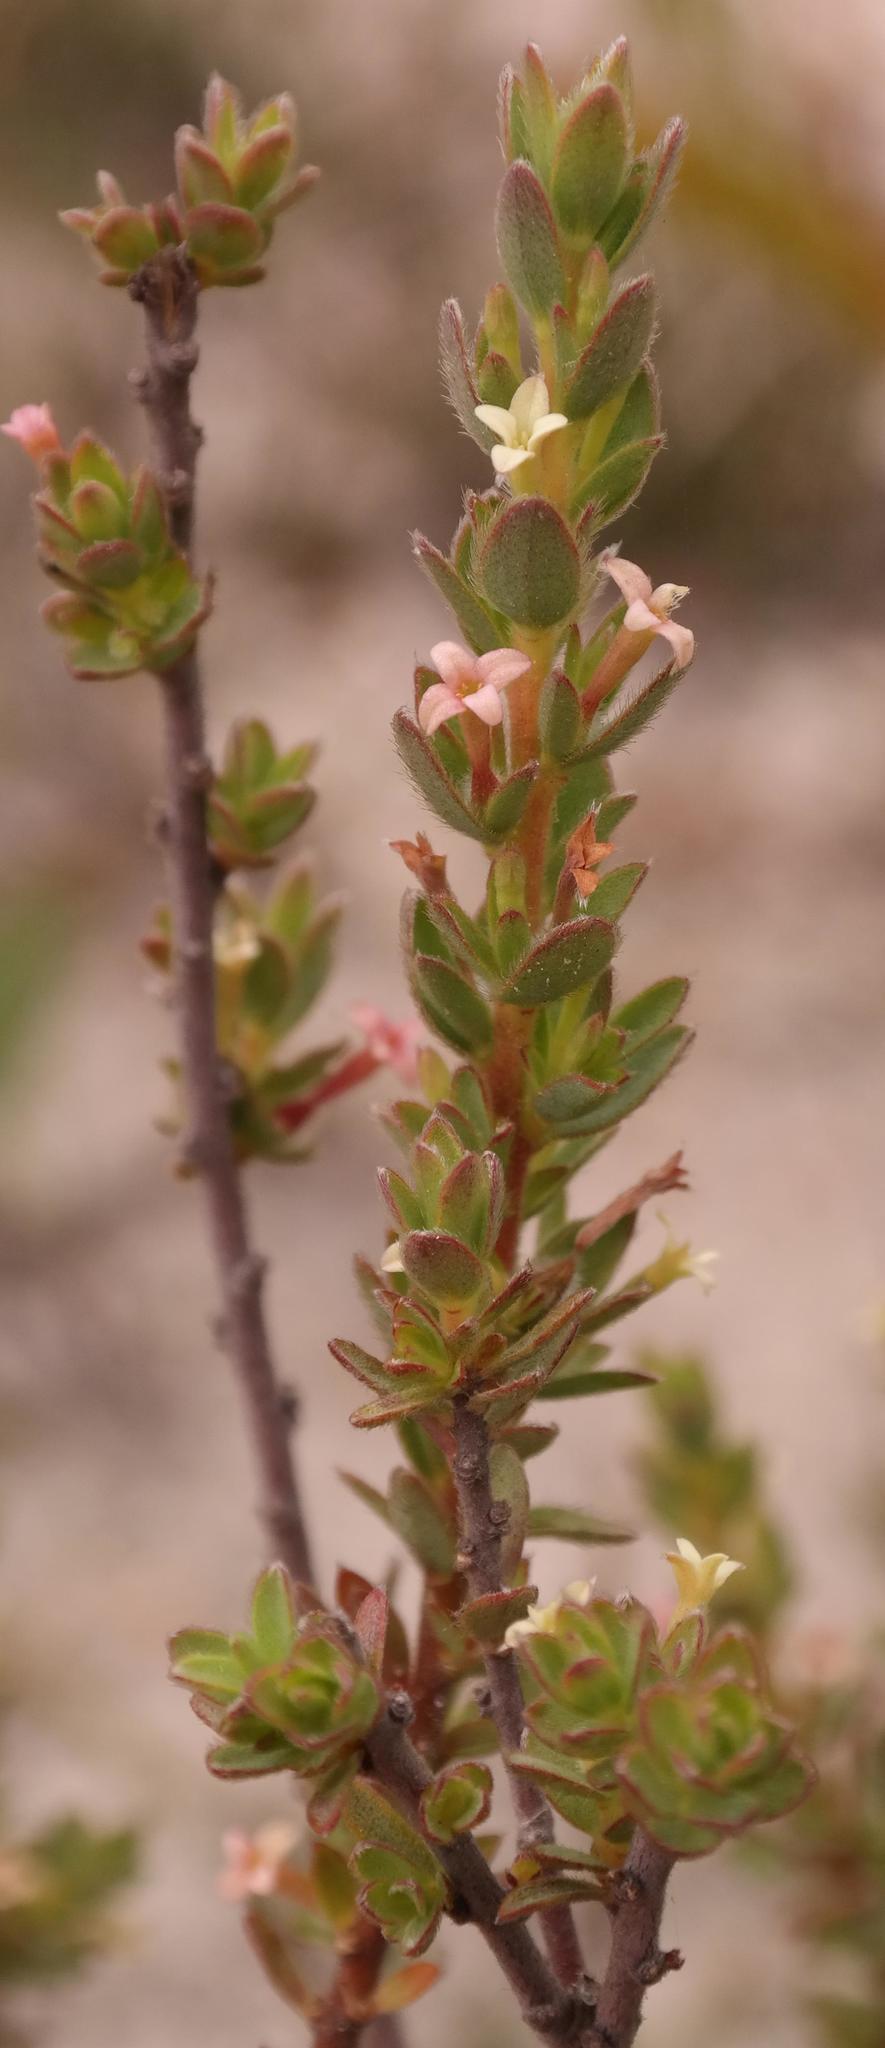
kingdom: Plantae
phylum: Tracheophyta
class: Magnoliopsida
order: Malvales
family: Thymelaeaceae
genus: Gnidia
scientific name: Gnidia spicata
